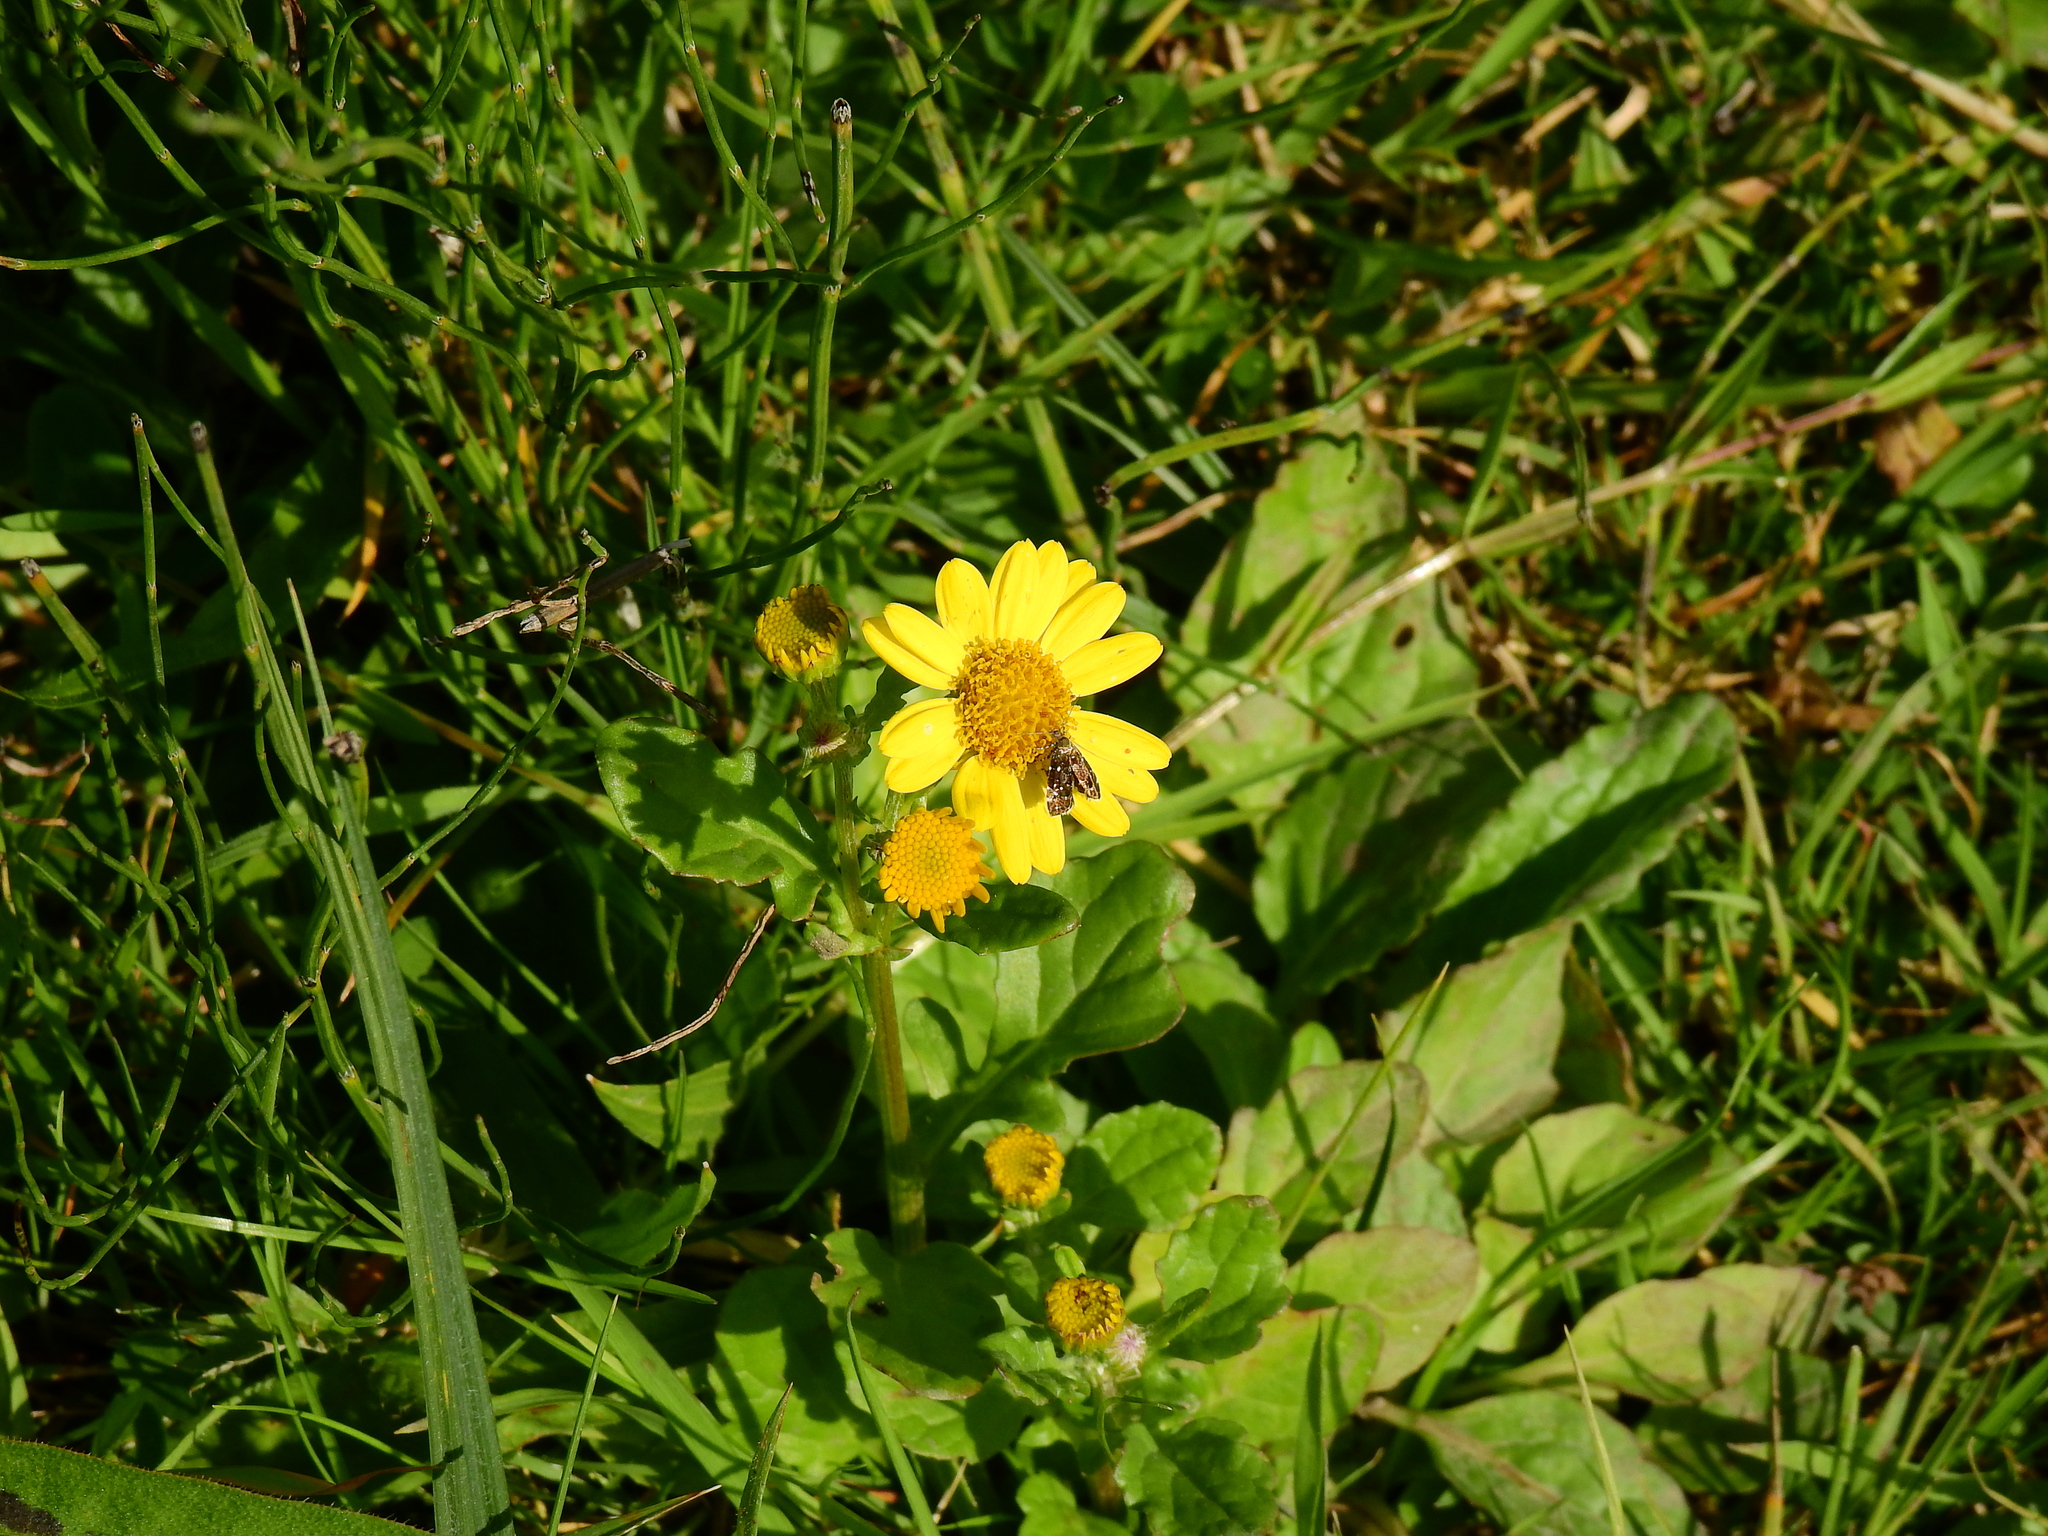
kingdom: Plantae
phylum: Tracheophyta
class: Magnoliopsida
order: Asterales
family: Asteraceae
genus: Jacobaea
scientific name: Jacobaea aquatica
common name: Water ragwort
